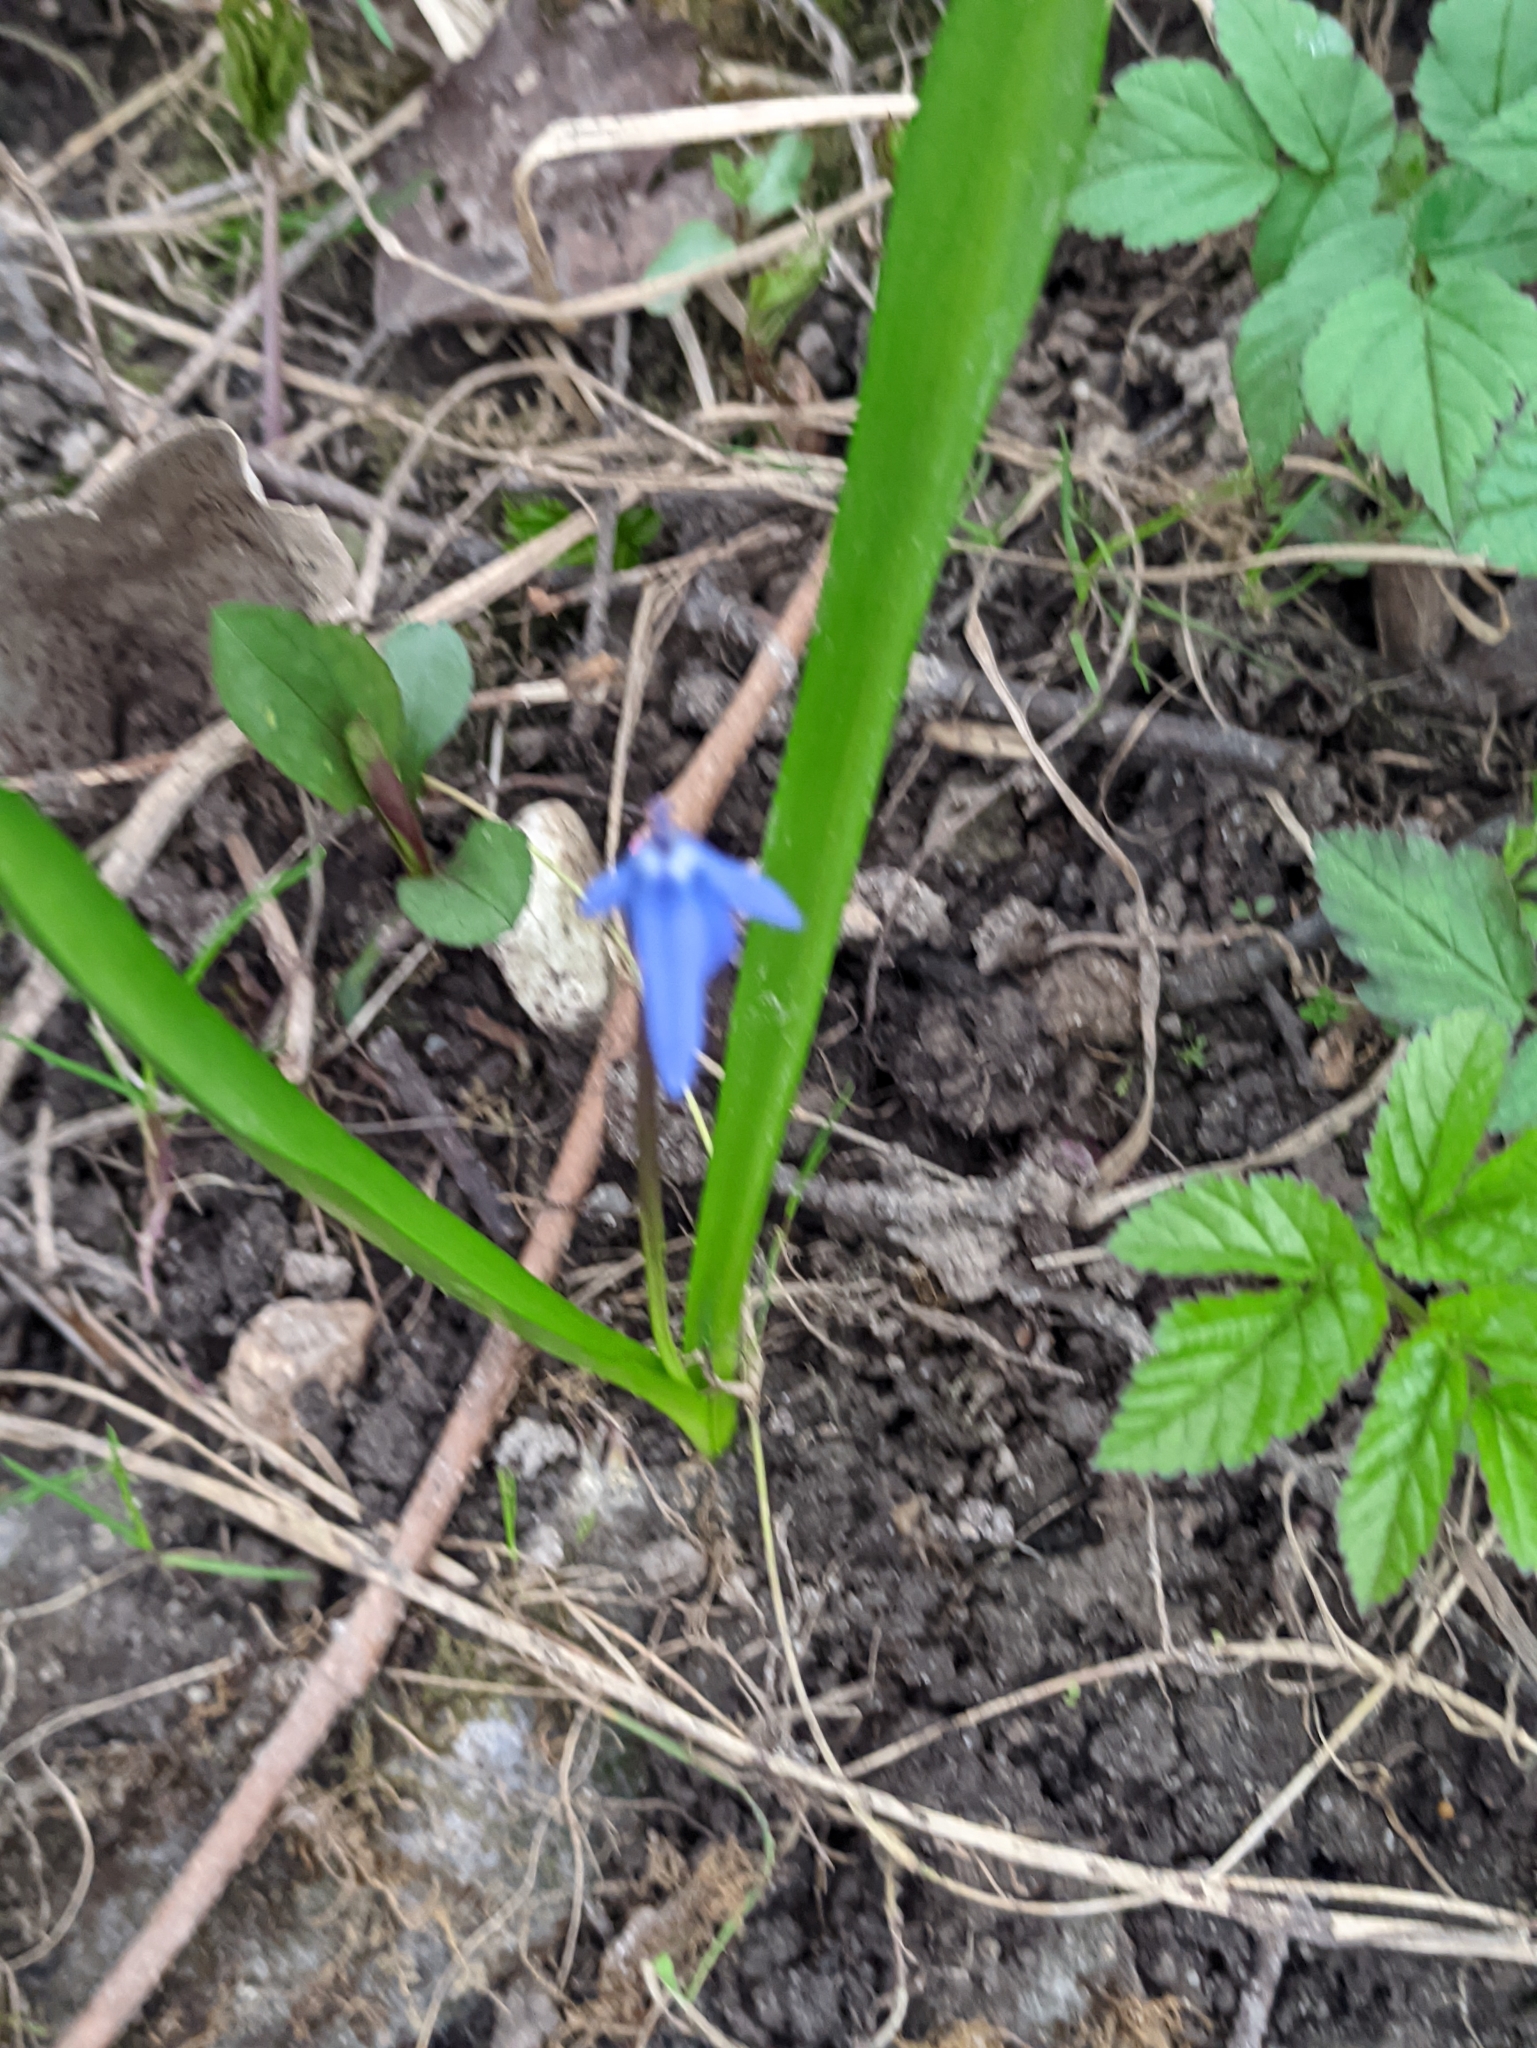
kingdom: Plantae
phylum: Tracheophyta
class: Liliopsida
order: Asparagales
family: Asparagaceae
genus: Scilla
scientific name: Scilla siberica
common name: Siberian squill
